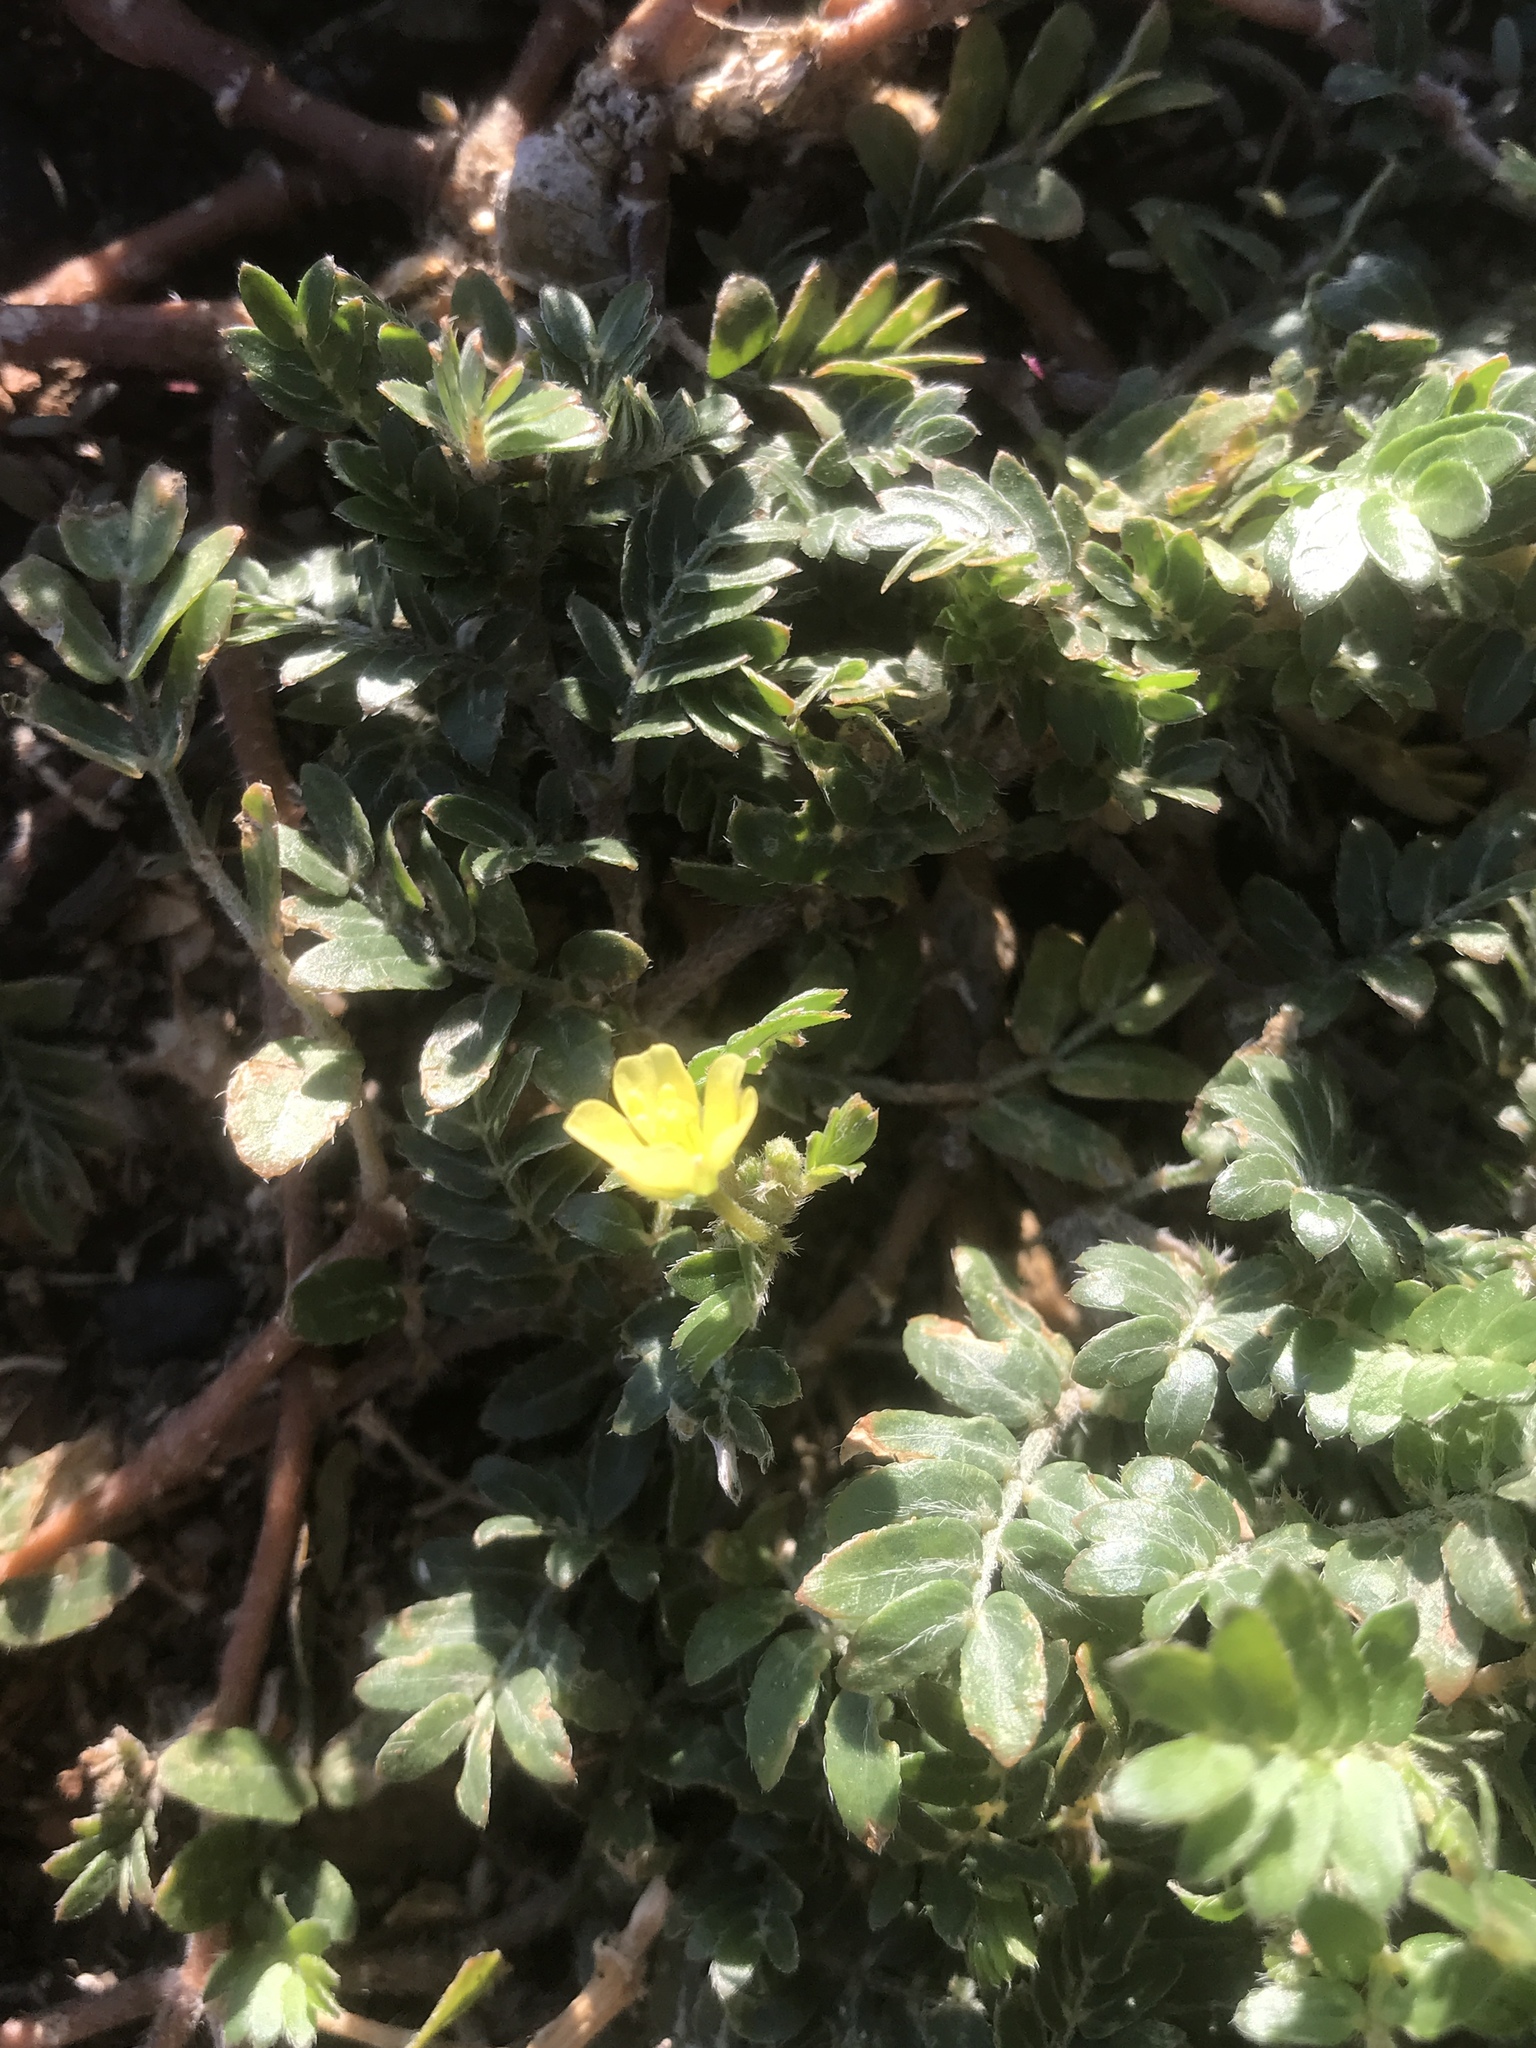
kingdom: Plantae
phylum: Tracheophyta
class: Magnoliopsida
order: Zygophyllales
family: Zygophyllaceae
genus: Tribulus
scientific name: Tribulus terrestris
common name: Puncturevine
